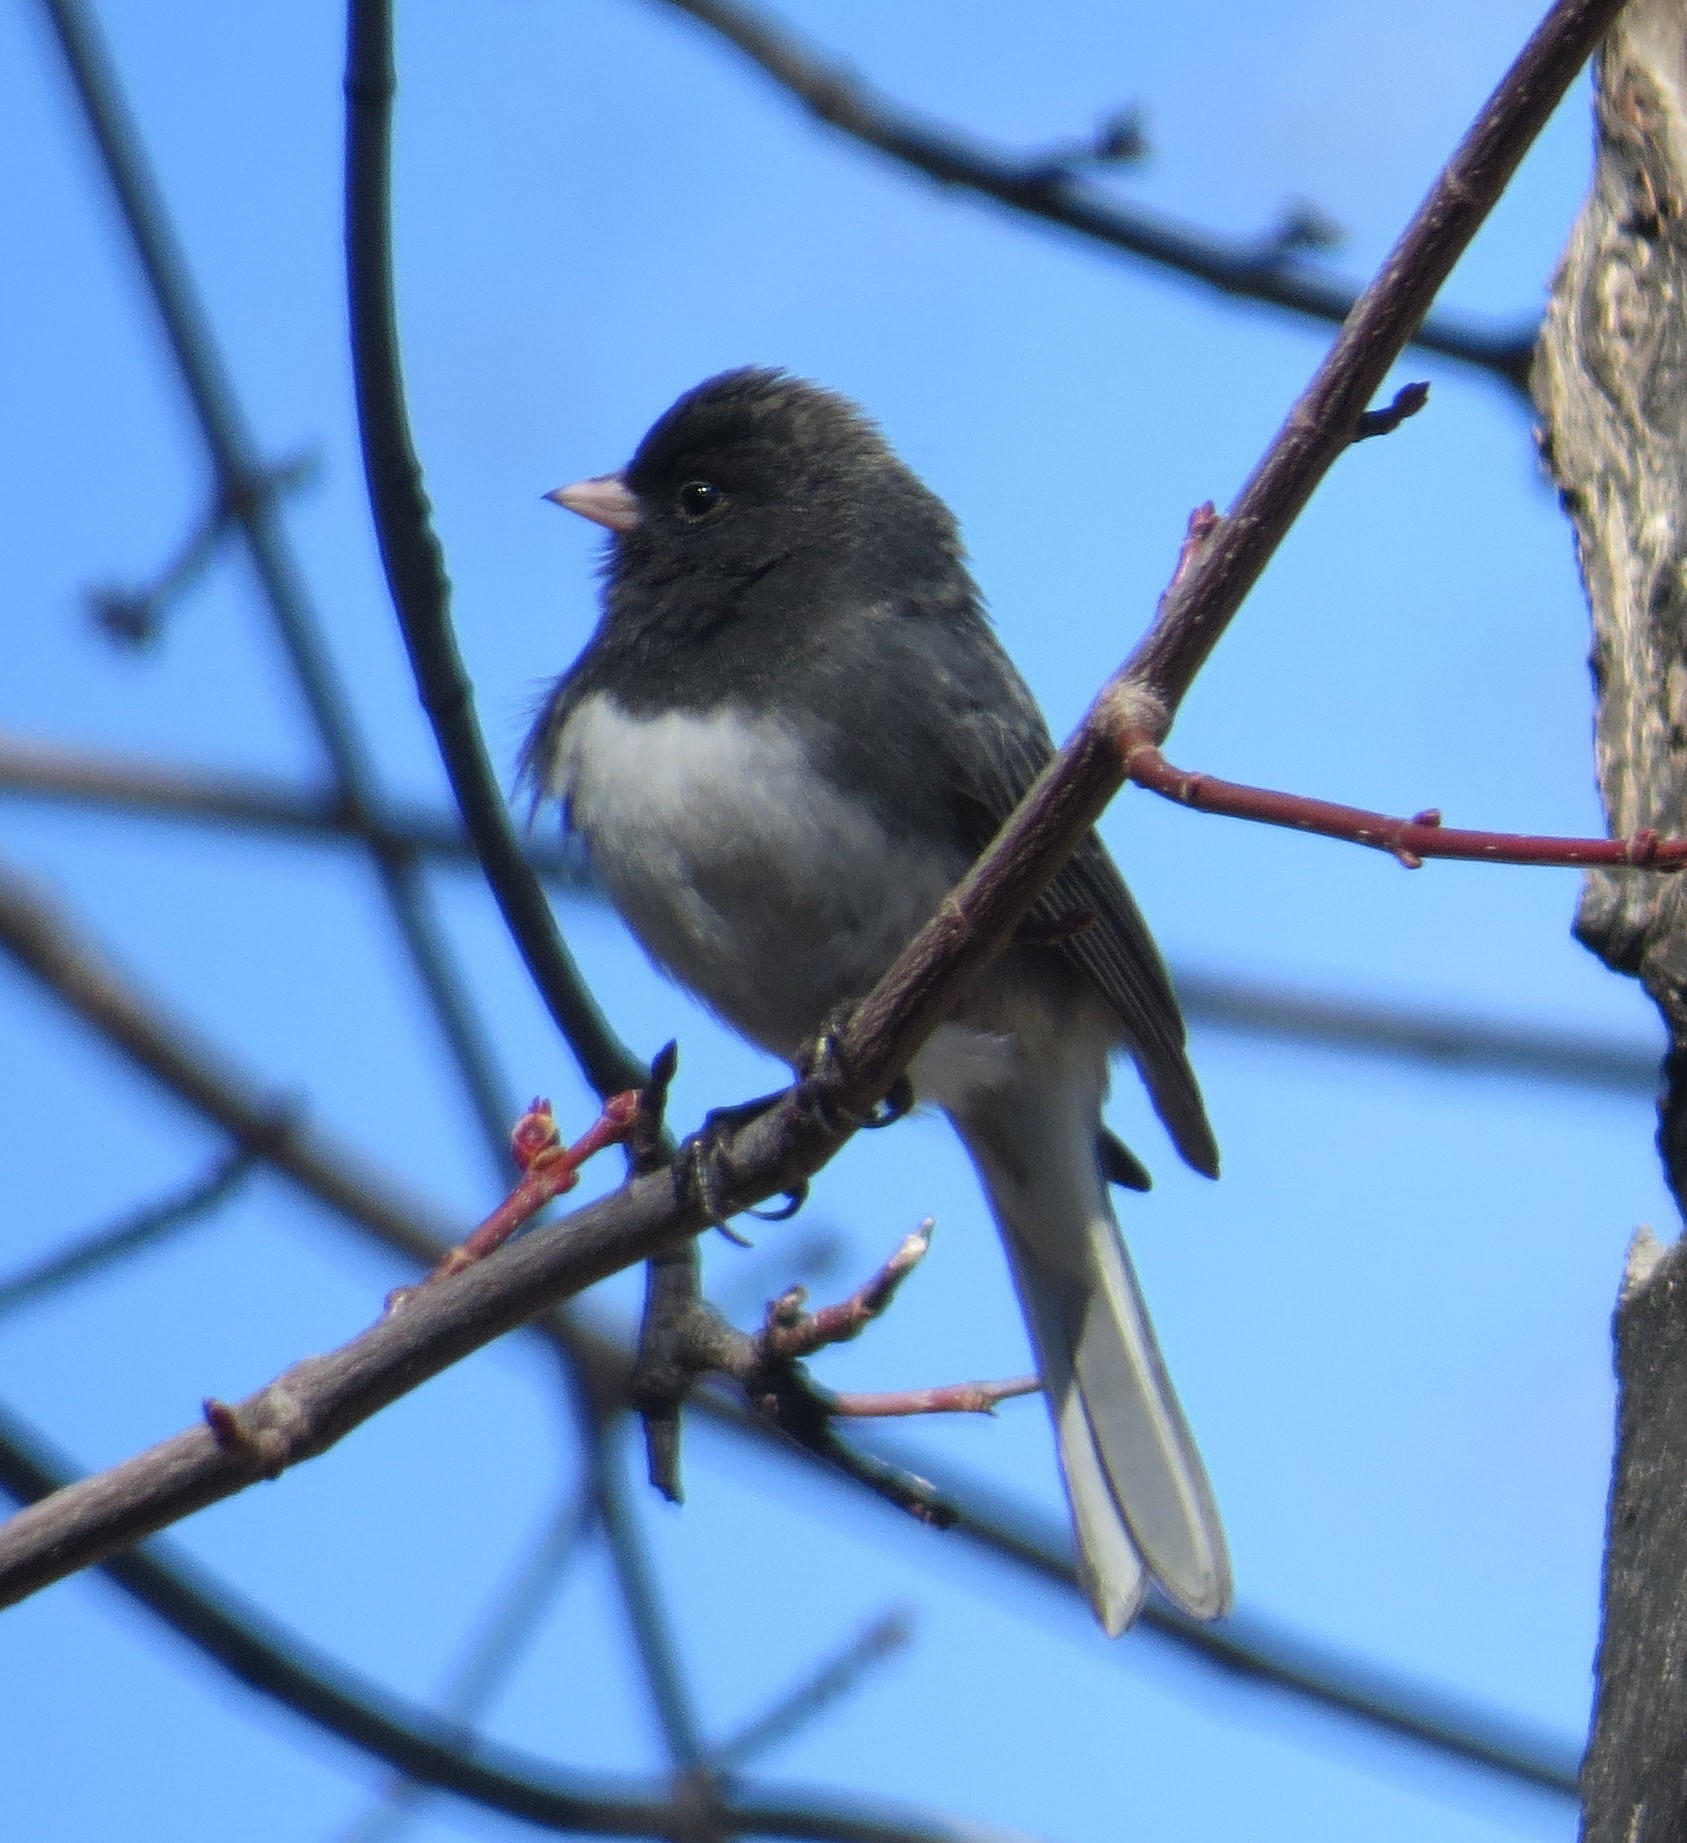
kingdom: Animalia
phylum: Chordata
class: Aves
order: Passeriformes
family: Passerellidae
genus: Junco
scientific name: Junco hyemalis
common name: Dark-eyed junco
